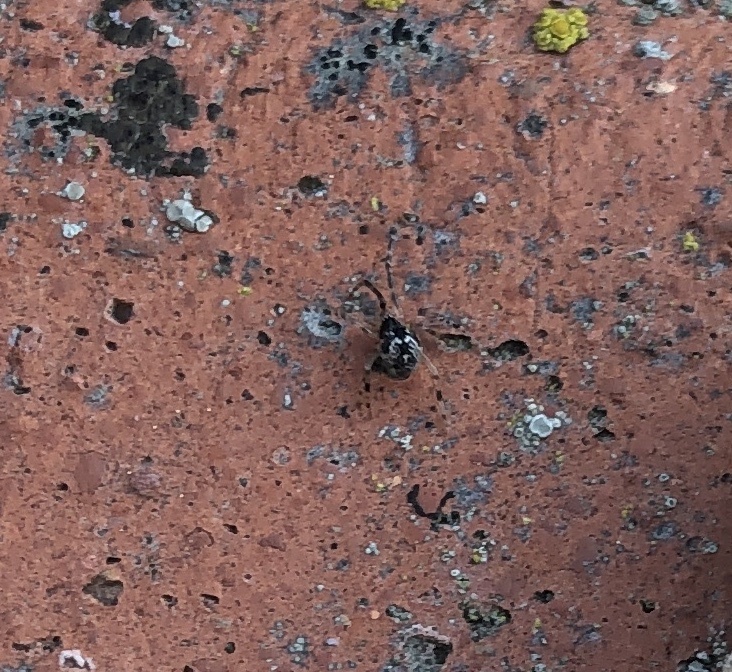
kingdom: Animalia
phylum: Arthropoda
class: Arachnida
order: Araneae
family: Theridiidae
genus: Cryptachaea
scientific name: Cryptachaea riparia
